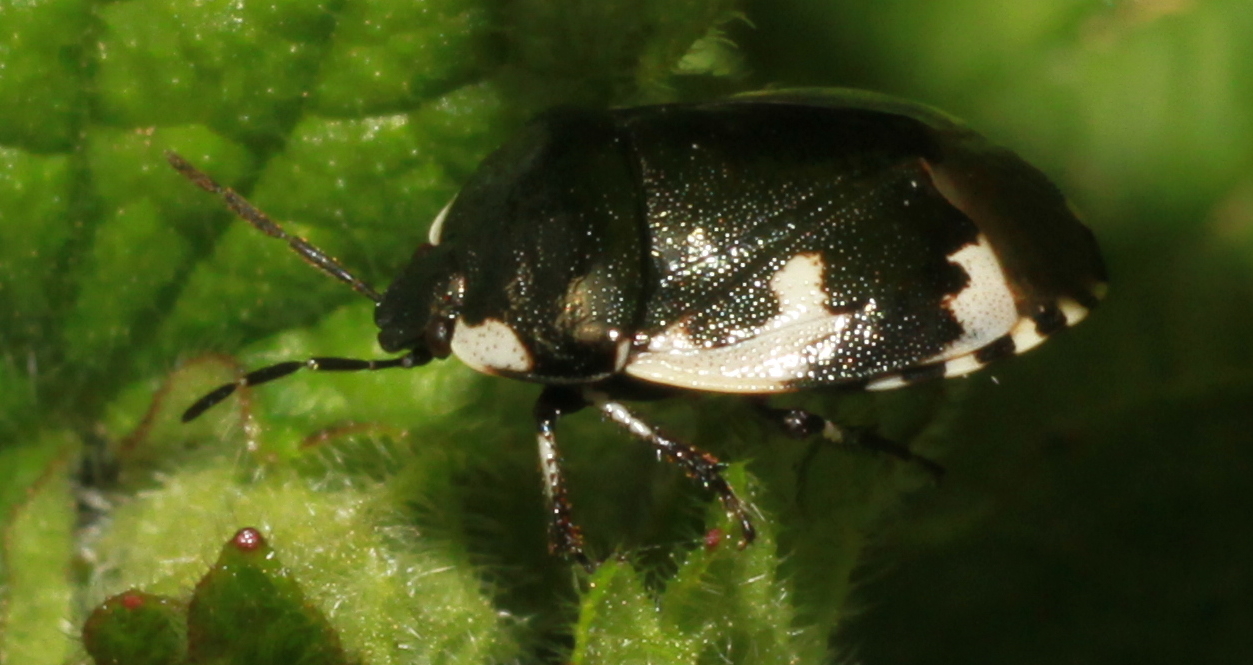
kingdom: Animalia
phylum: Arthropoda
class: Insecta
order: Hemiptera
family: Cydnidae
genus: Tritomegas
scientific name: Tritomegas bicolor
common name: Pied shieldbug
